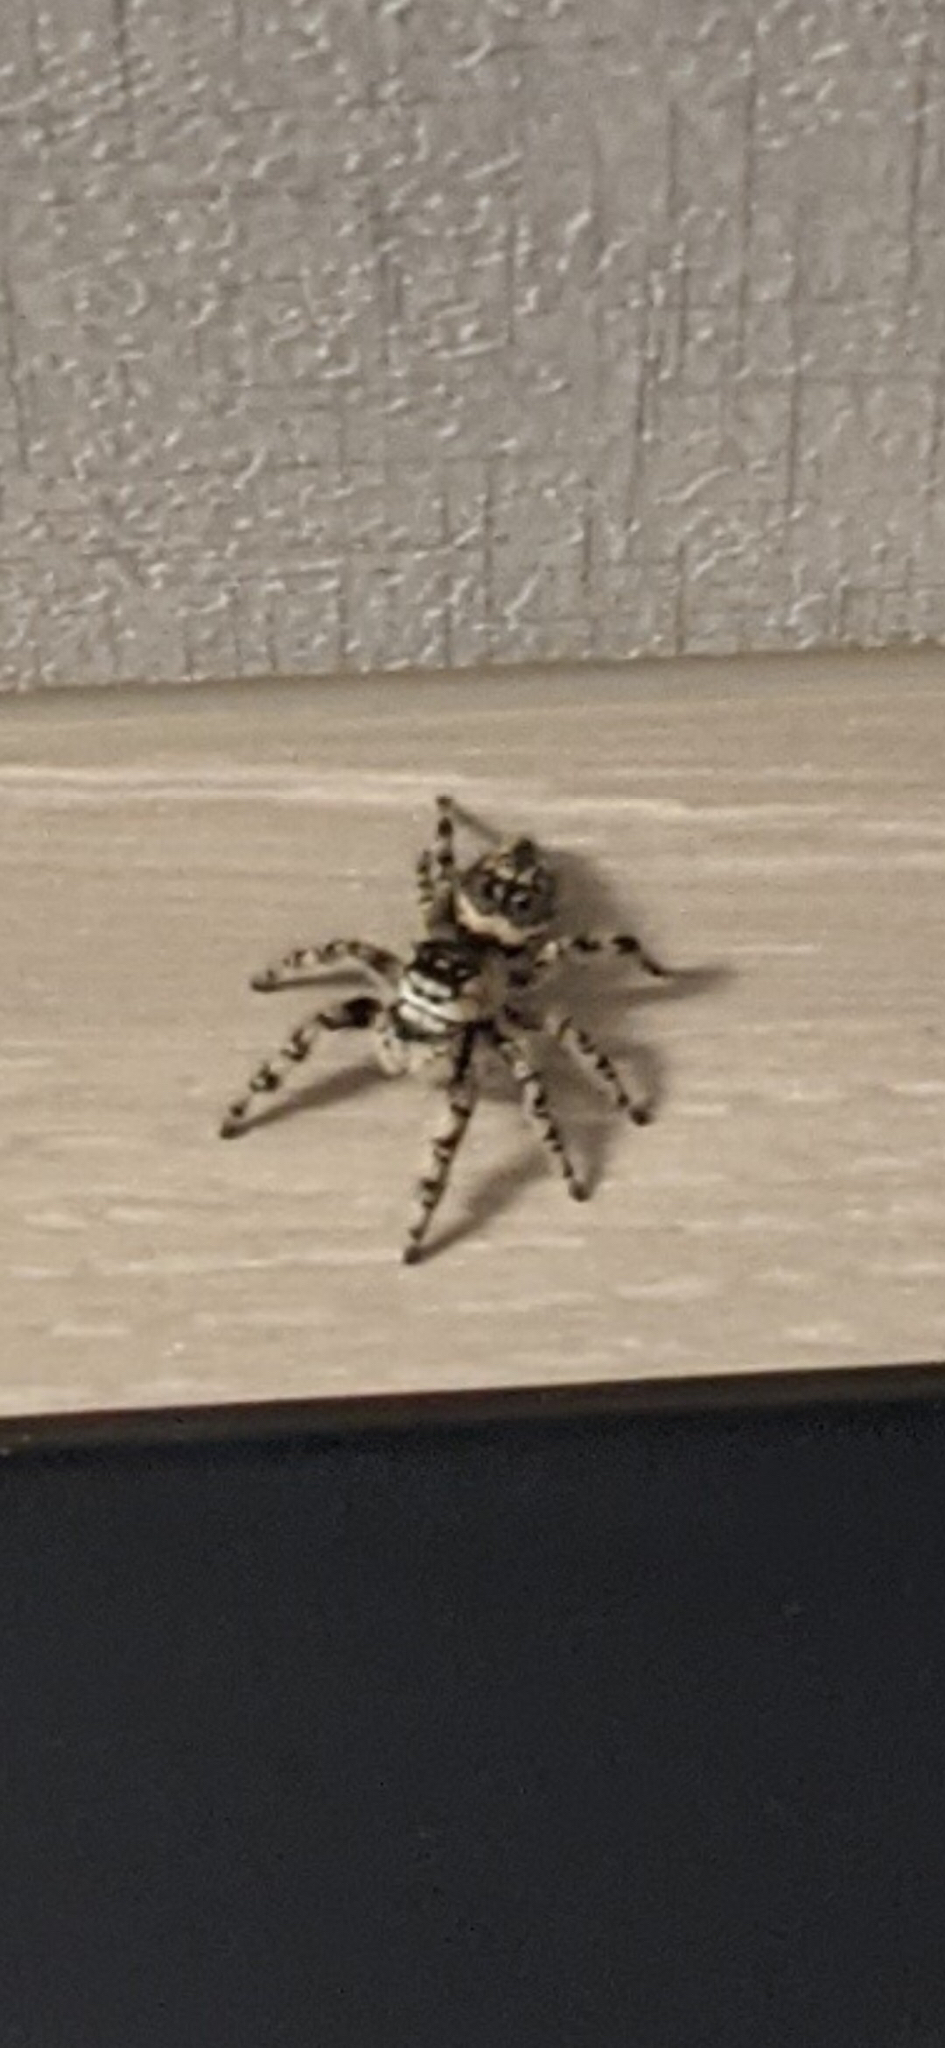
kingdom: Animalia
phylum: Arthropoda
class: Arachnida
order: Araneae
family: Salticidae
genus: Phidippus
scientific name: Phidippus otiosus
